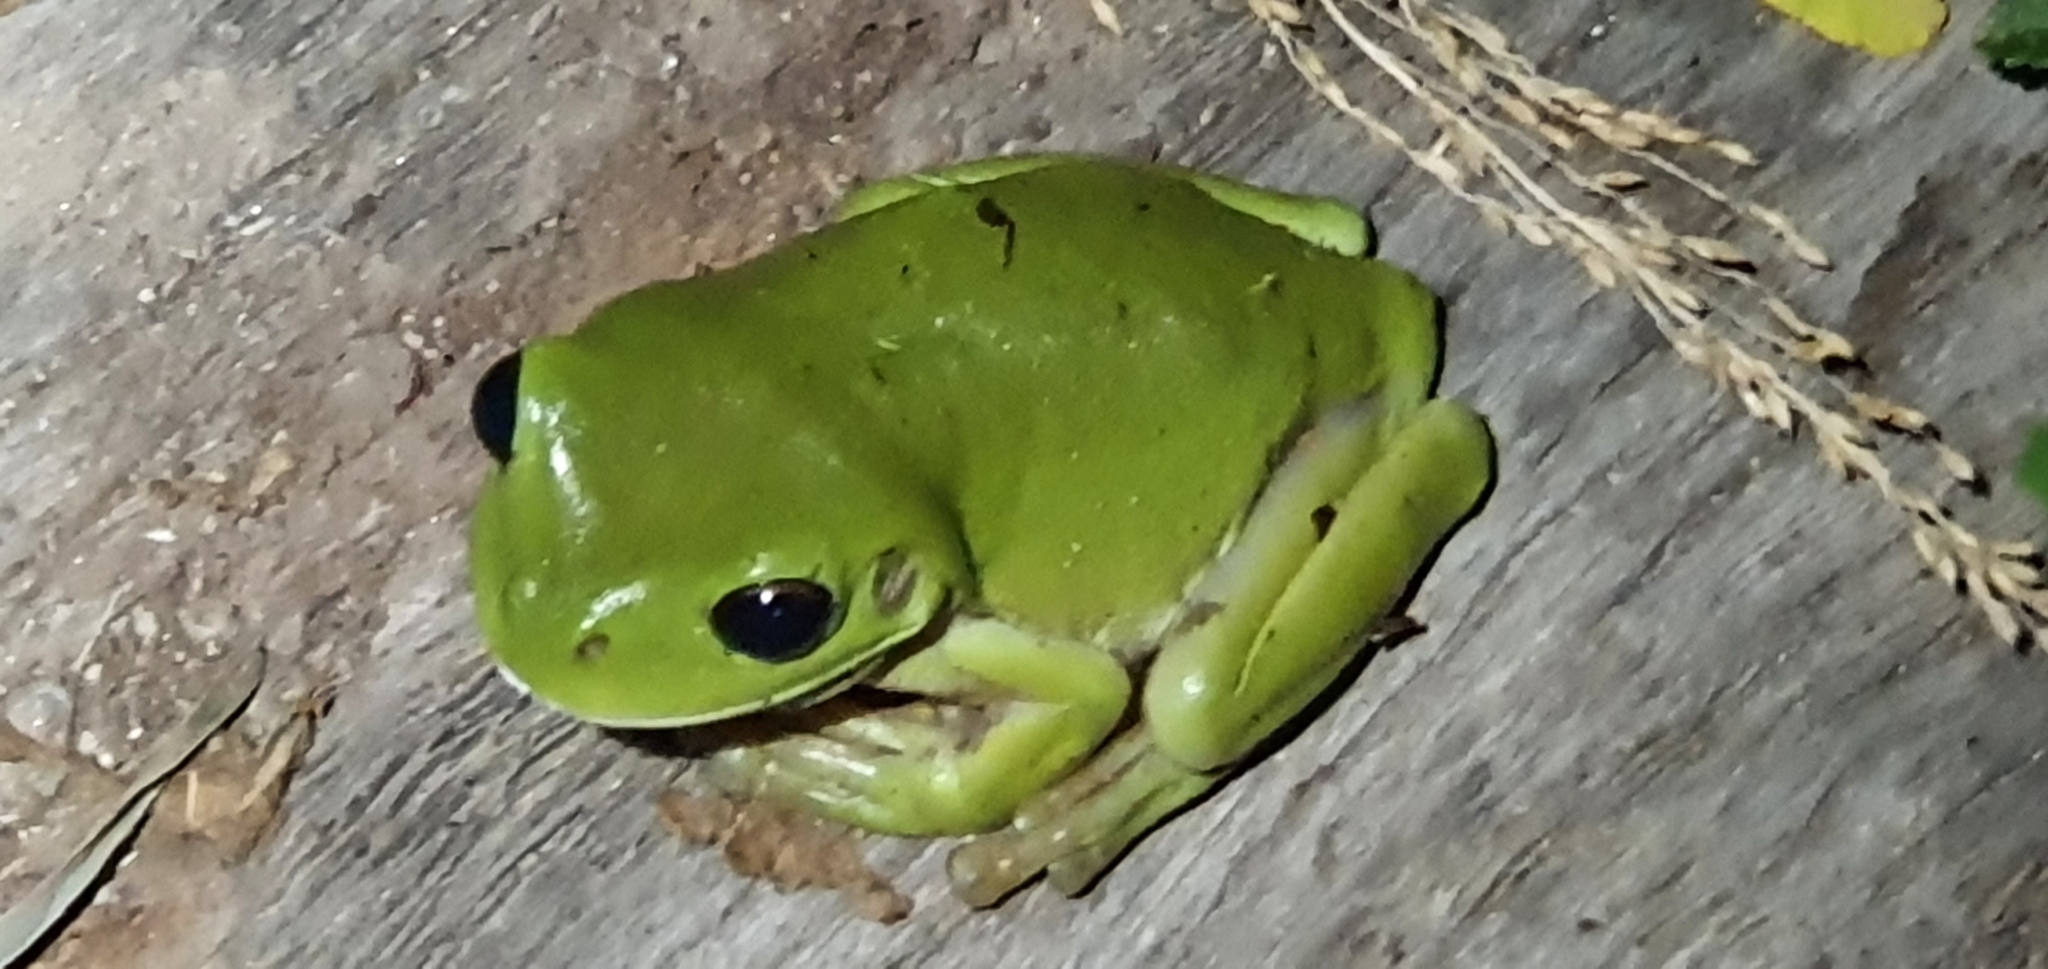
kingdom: Animalia
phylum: Chordata
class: Amphibia
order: Anura
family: Pelodryadidae
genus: Ranoidea
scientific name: Ranoidea caerulea
